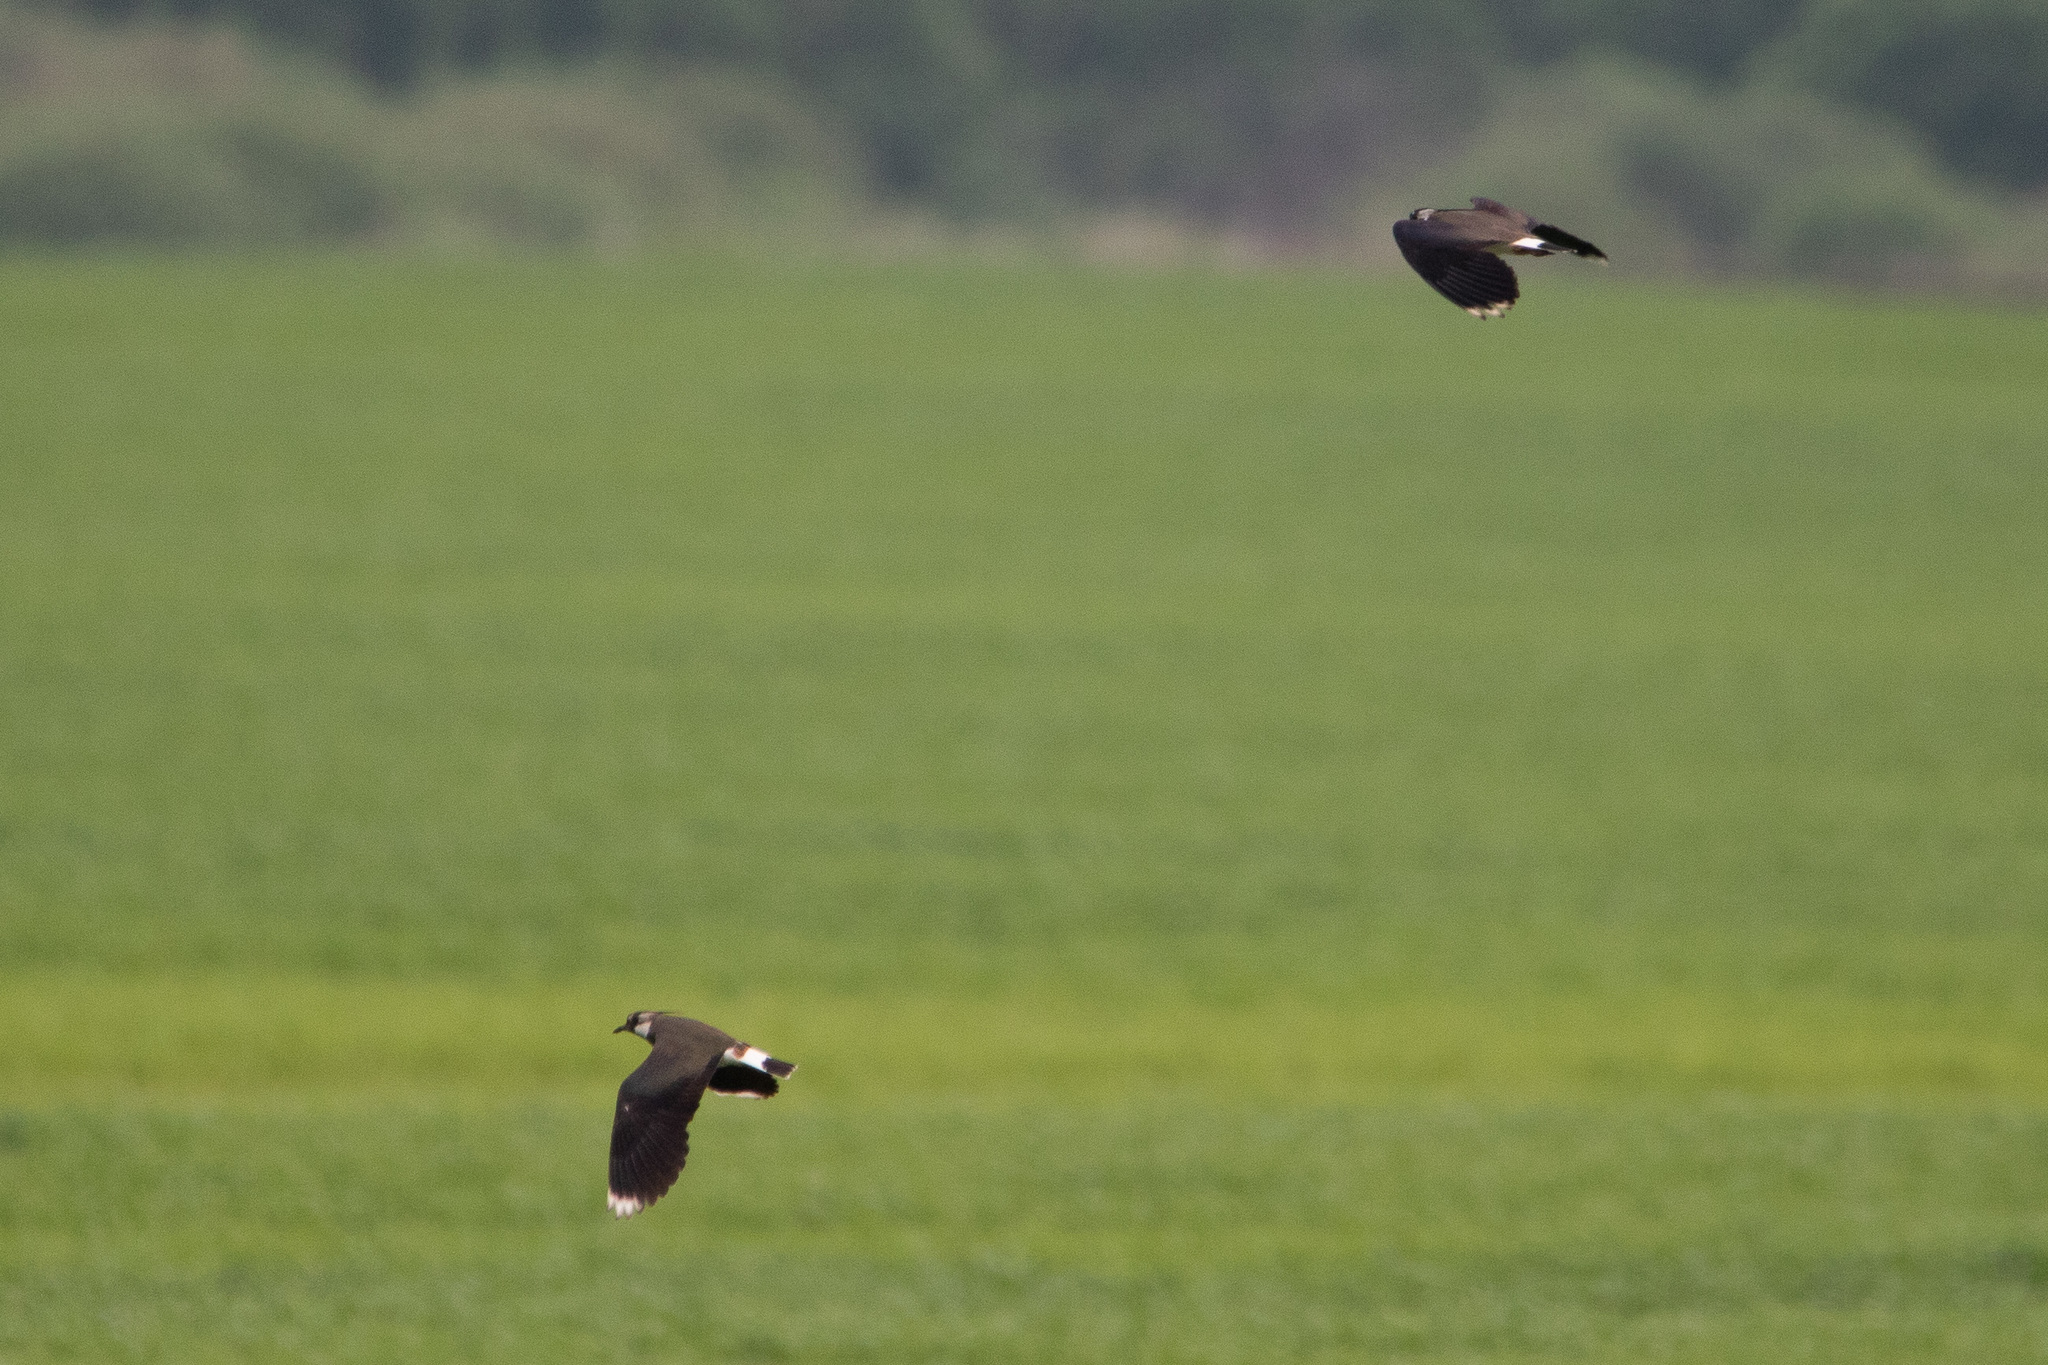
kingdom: Animalia
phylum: Chordata
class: Aves
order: Charadriiformes
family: Charadriidae
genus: Vanellus
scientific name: Vanellus vanellus
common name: Northern lapwing
